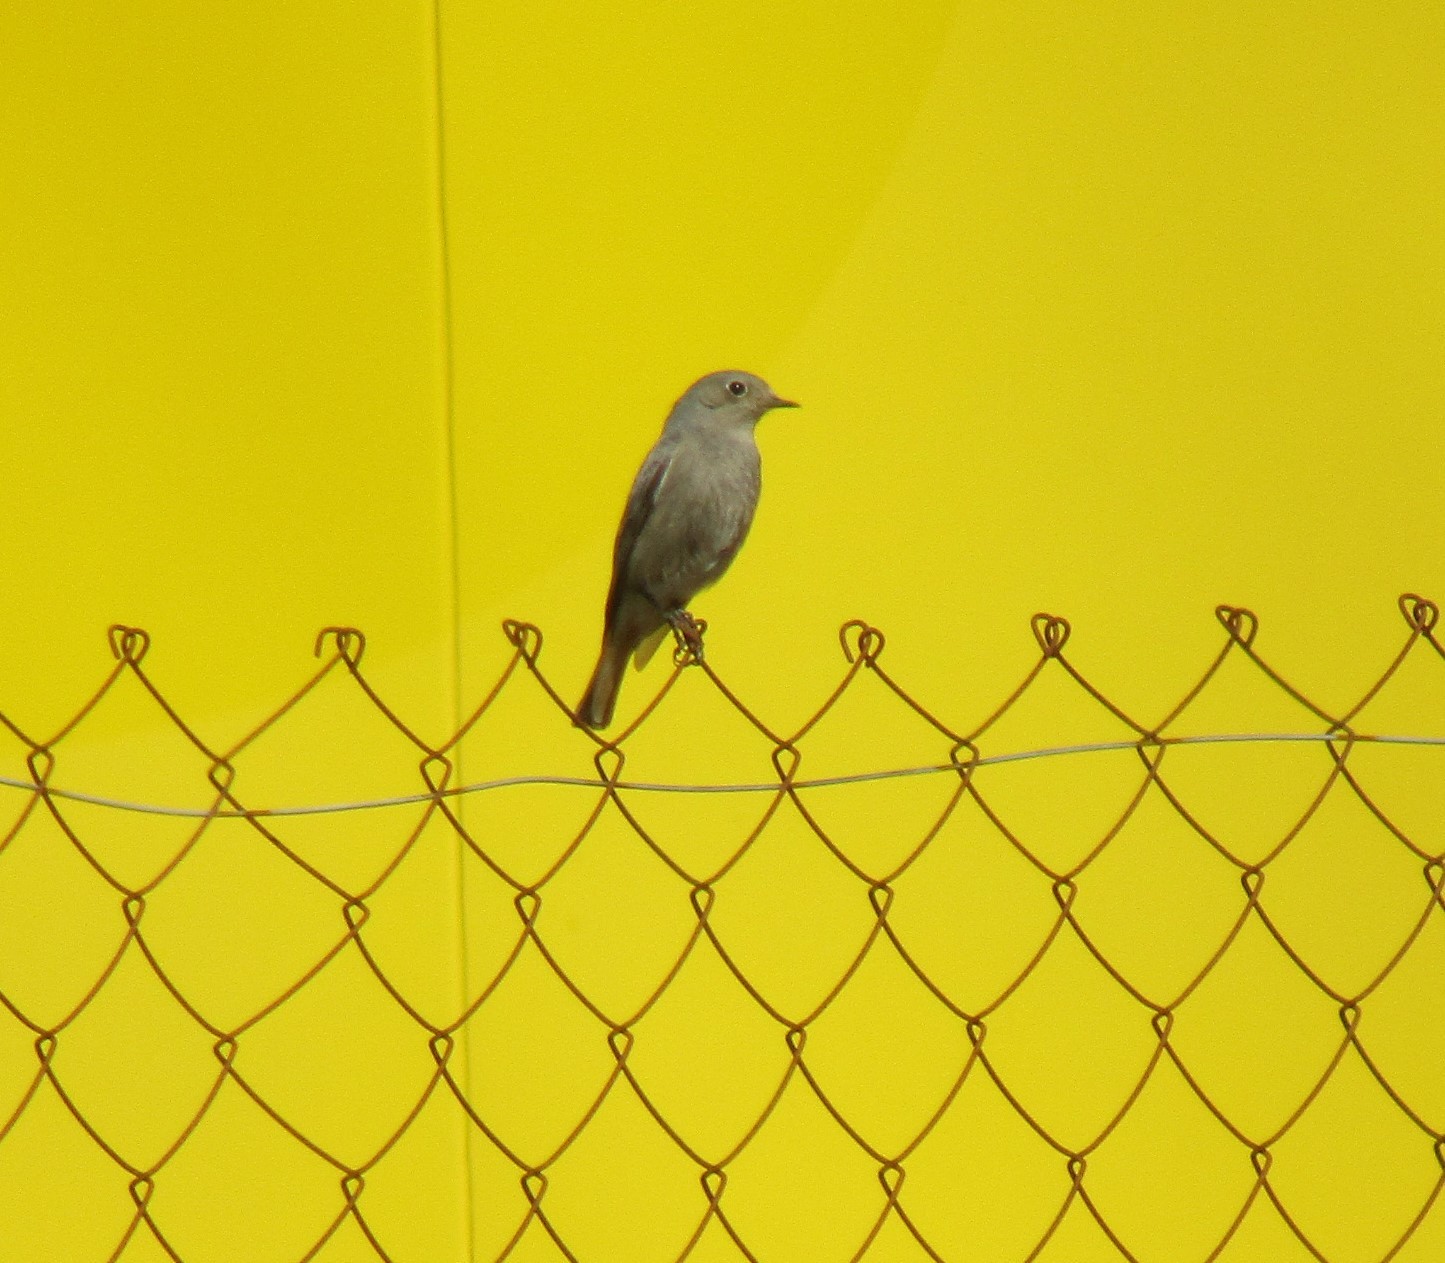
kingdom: Animalia
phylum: Chordata
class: Aves
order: Passeriformes
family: Muscicapidae
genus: Phoenicurus
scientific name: Phoenicurus ochruros
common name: Black redstart
